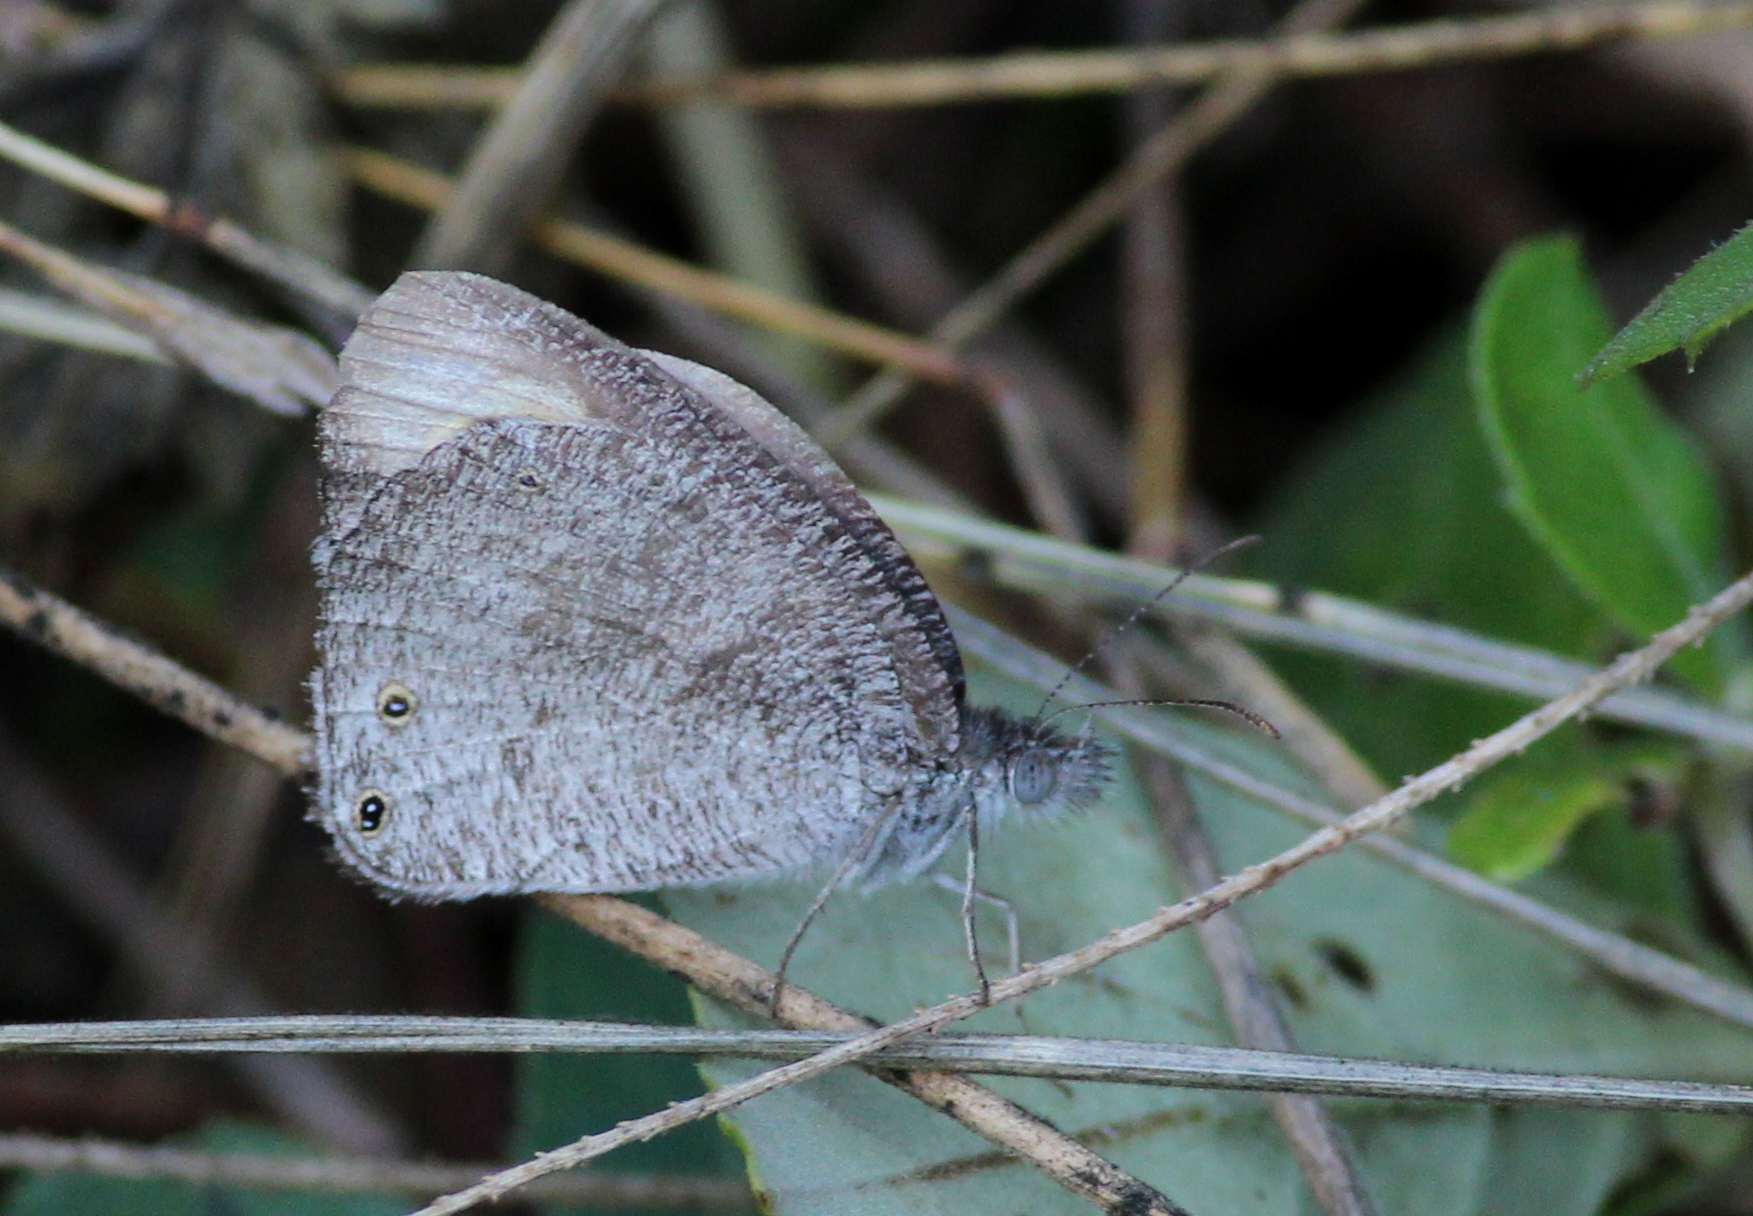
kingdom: Animalia
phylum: Arthropoda
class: Insecta
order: Lepidoptera
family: Nymphalidae
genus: Ypthima
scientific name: Ypthima asterope
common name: African ringlet
